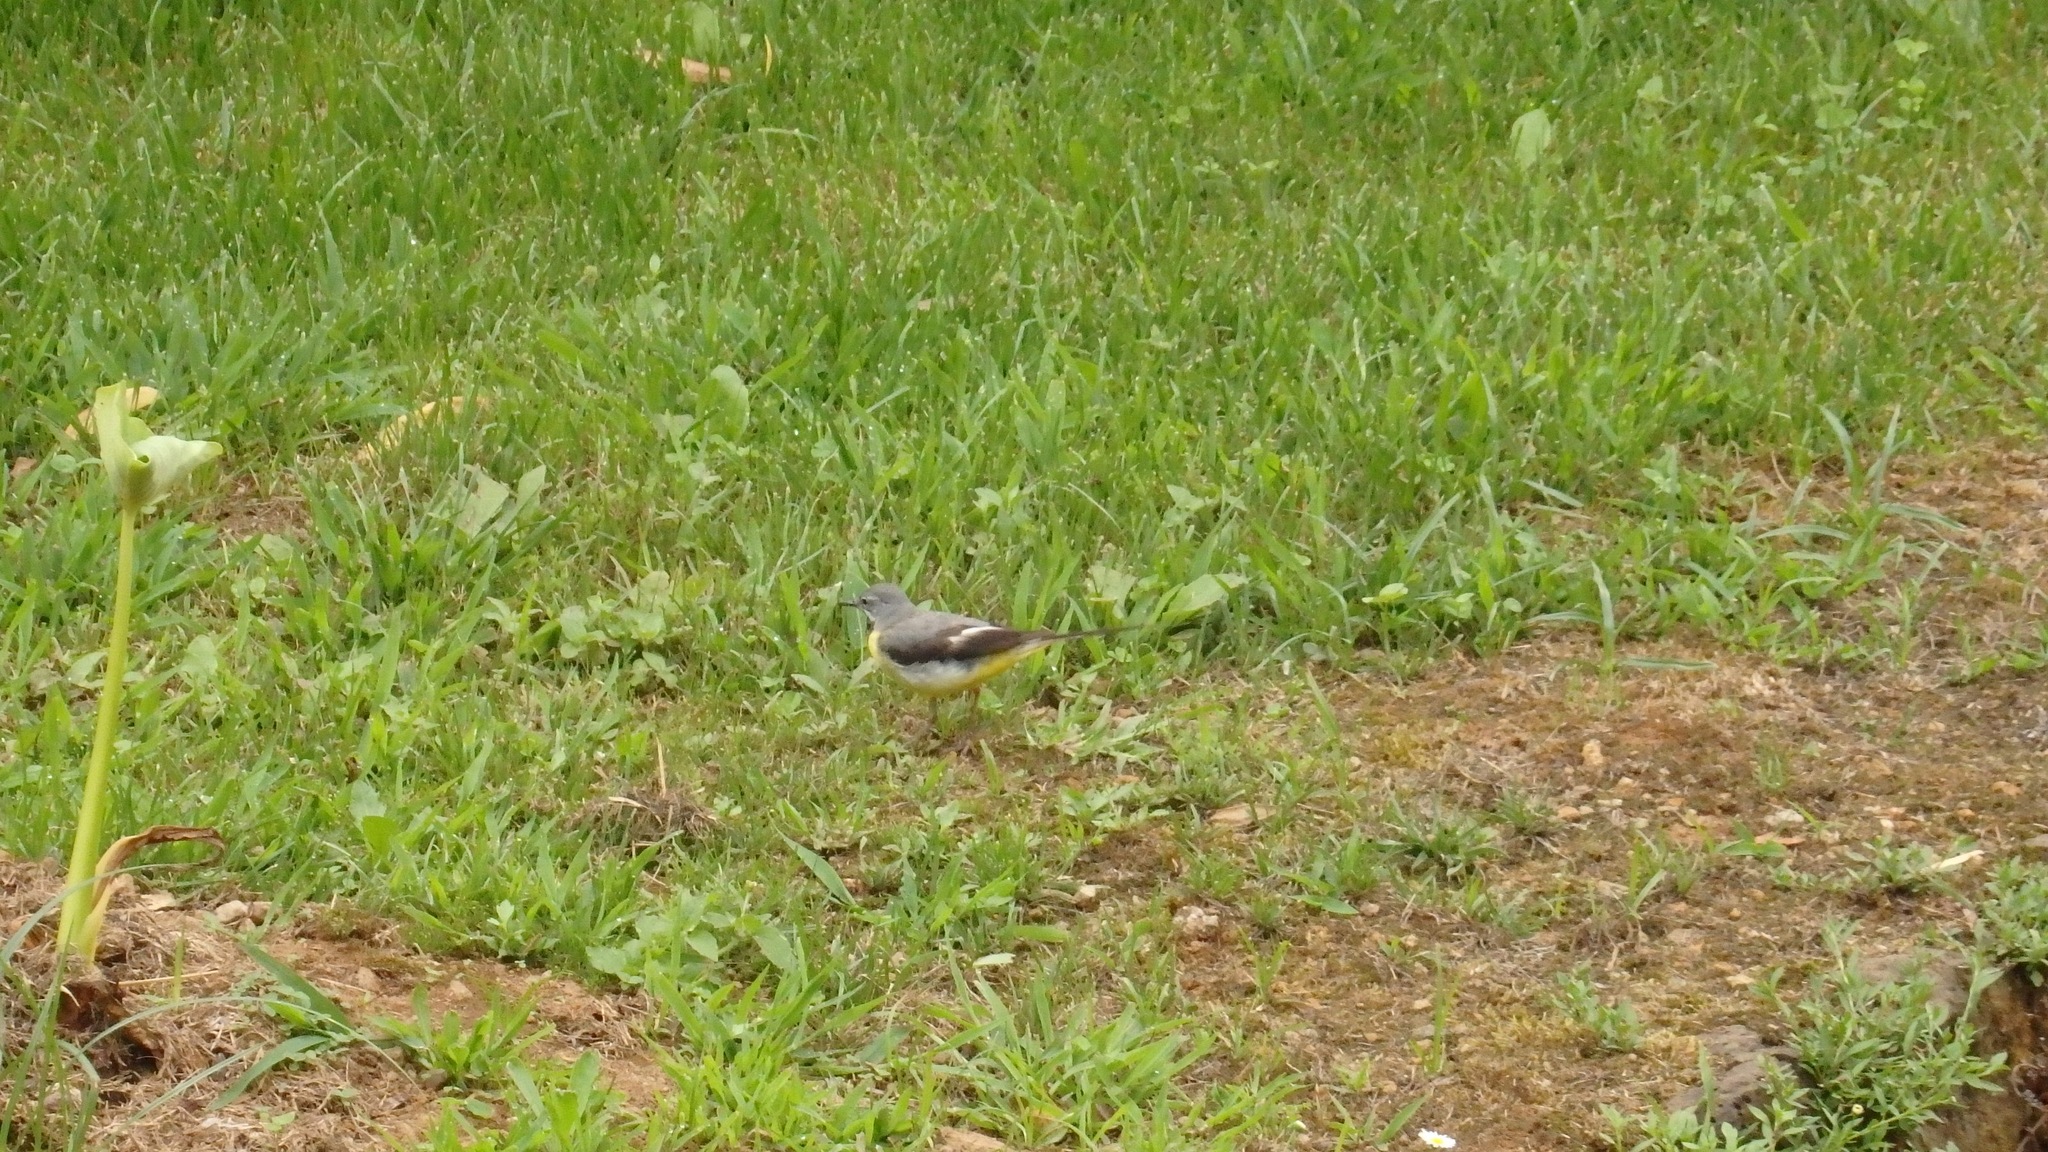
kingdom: Animalia
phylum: Chordata
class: Aves
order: Passeriformes
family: Motacillidae
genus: Motacilla
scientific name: Motacilla cinerea
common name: Grey wagtail
